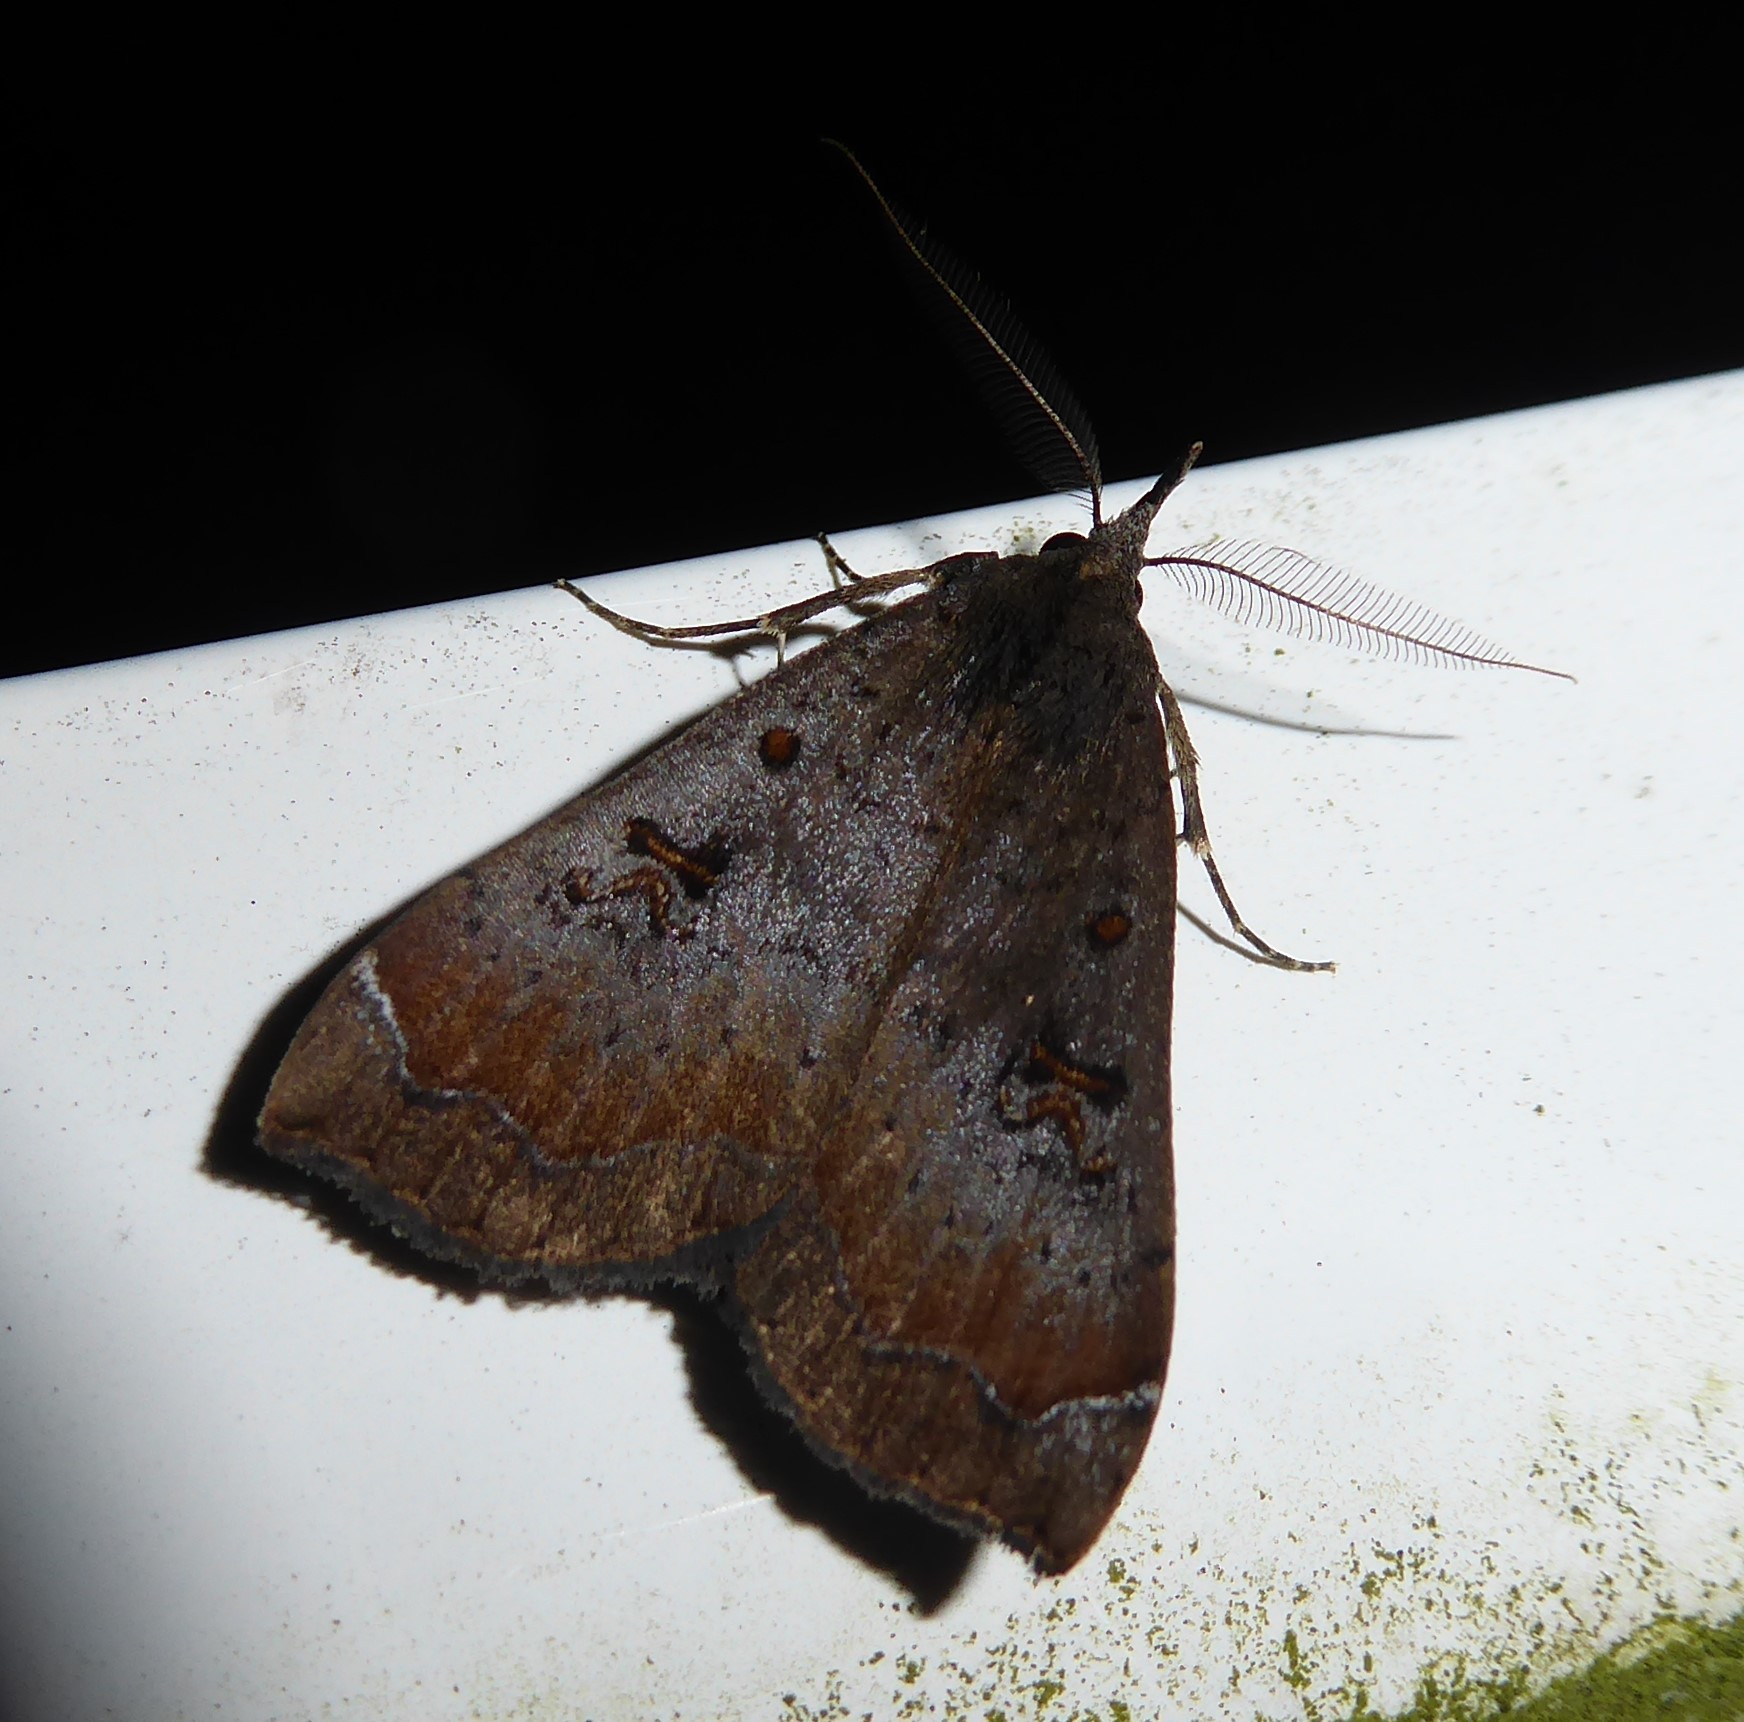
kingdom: Animalia
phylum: Arthropoda
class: Insecta
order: Lepidoptera
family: Erebidae
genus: Rhapsa
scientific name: Rhapsa scotosialis
